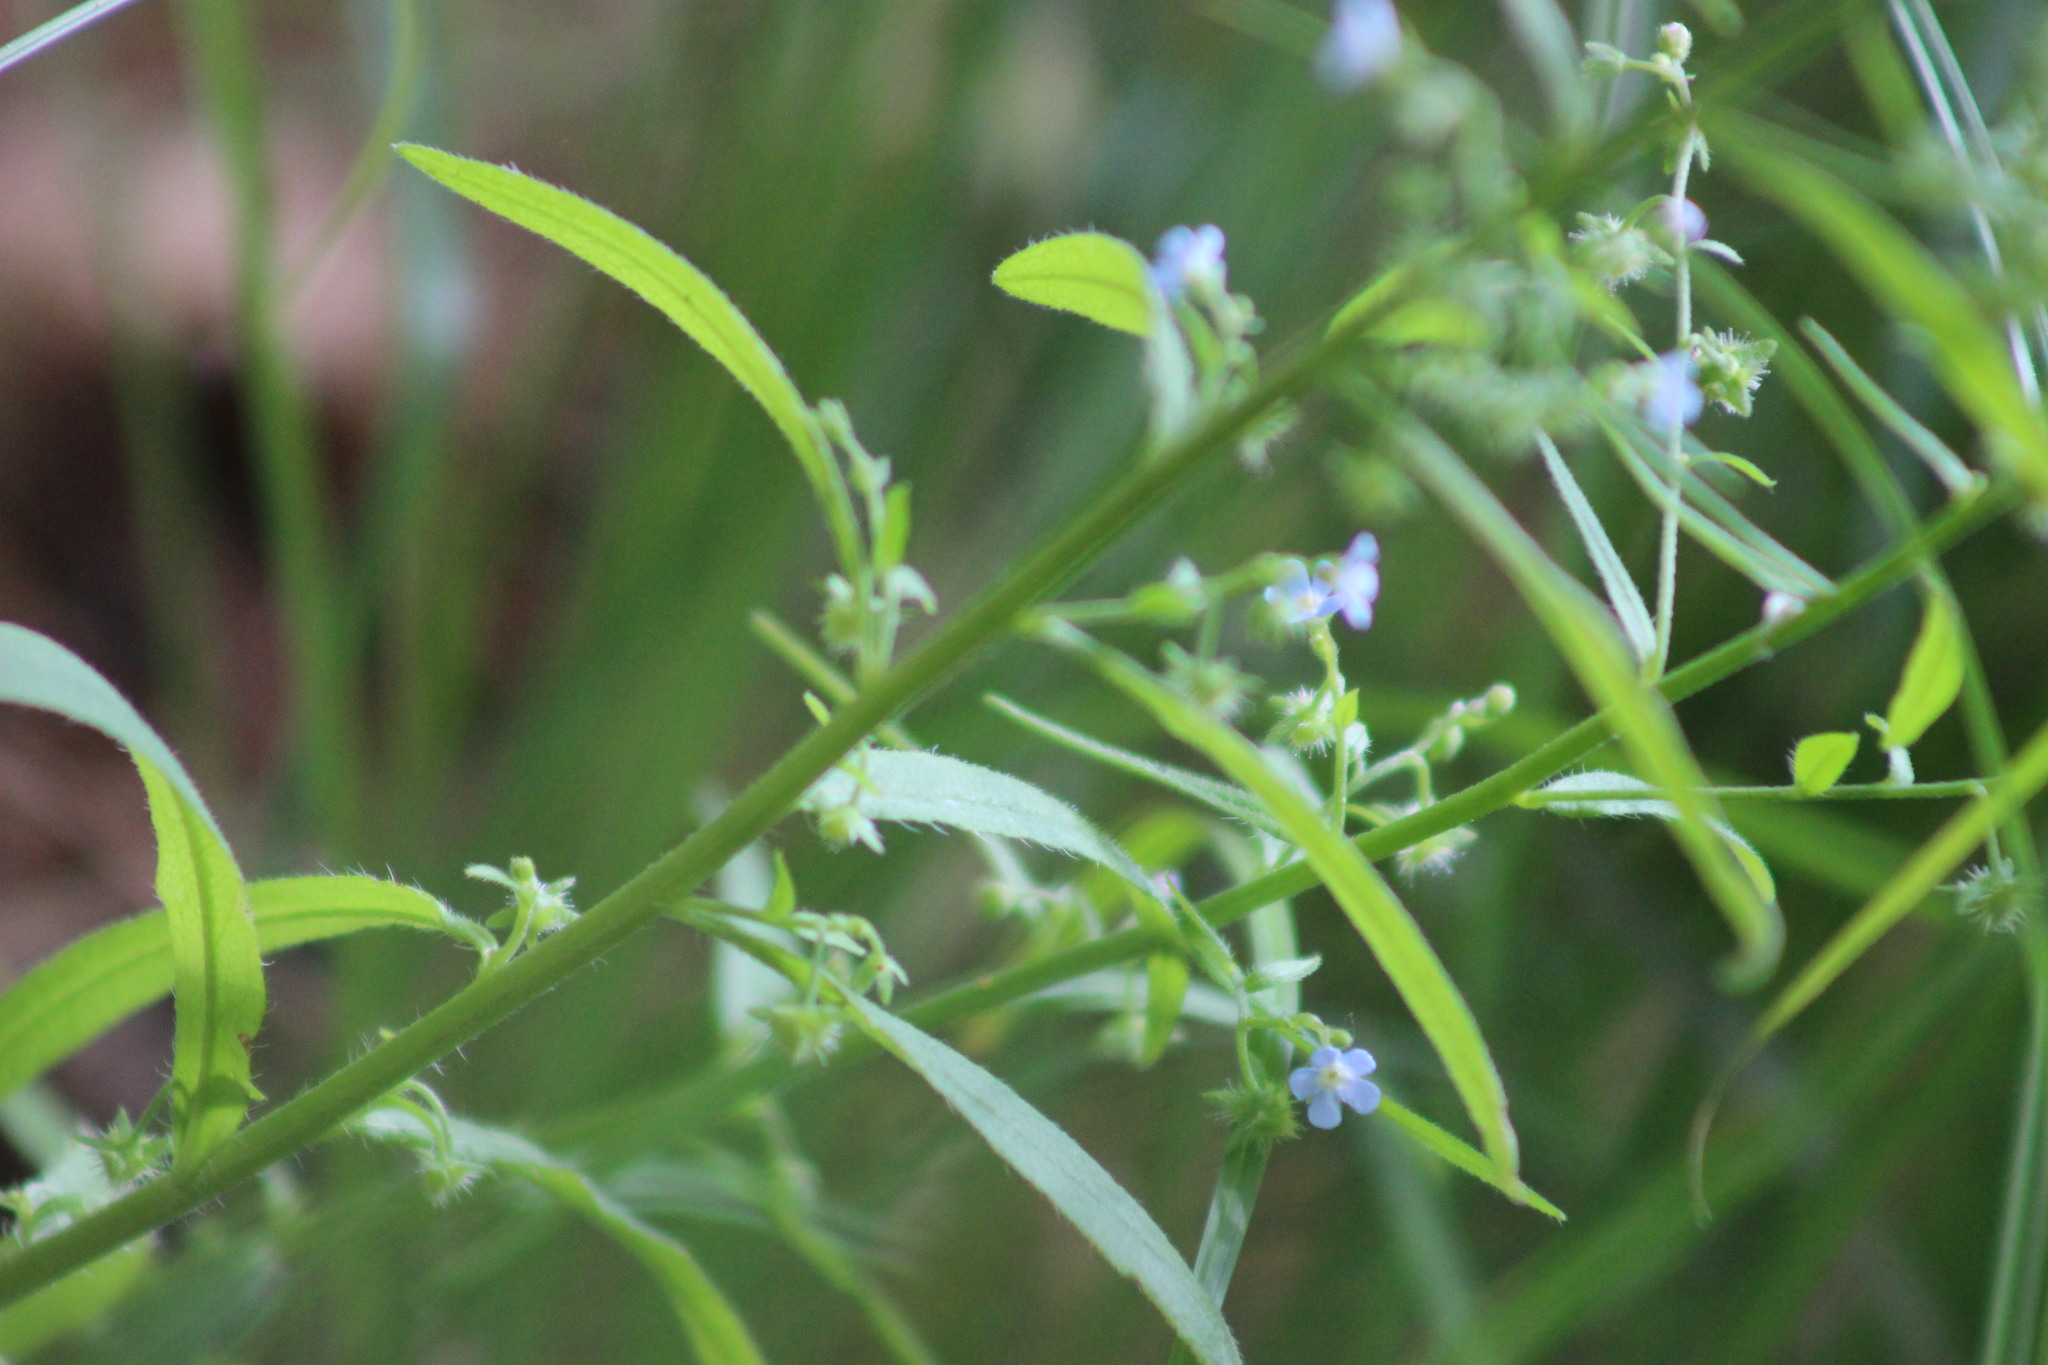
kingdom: Plantae
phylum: Tracheophyta
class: Magnoliopsida
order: Boraginales
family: Boraginaceae
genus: Lappula
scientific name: Lappula squarrosa
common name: European stickseed
